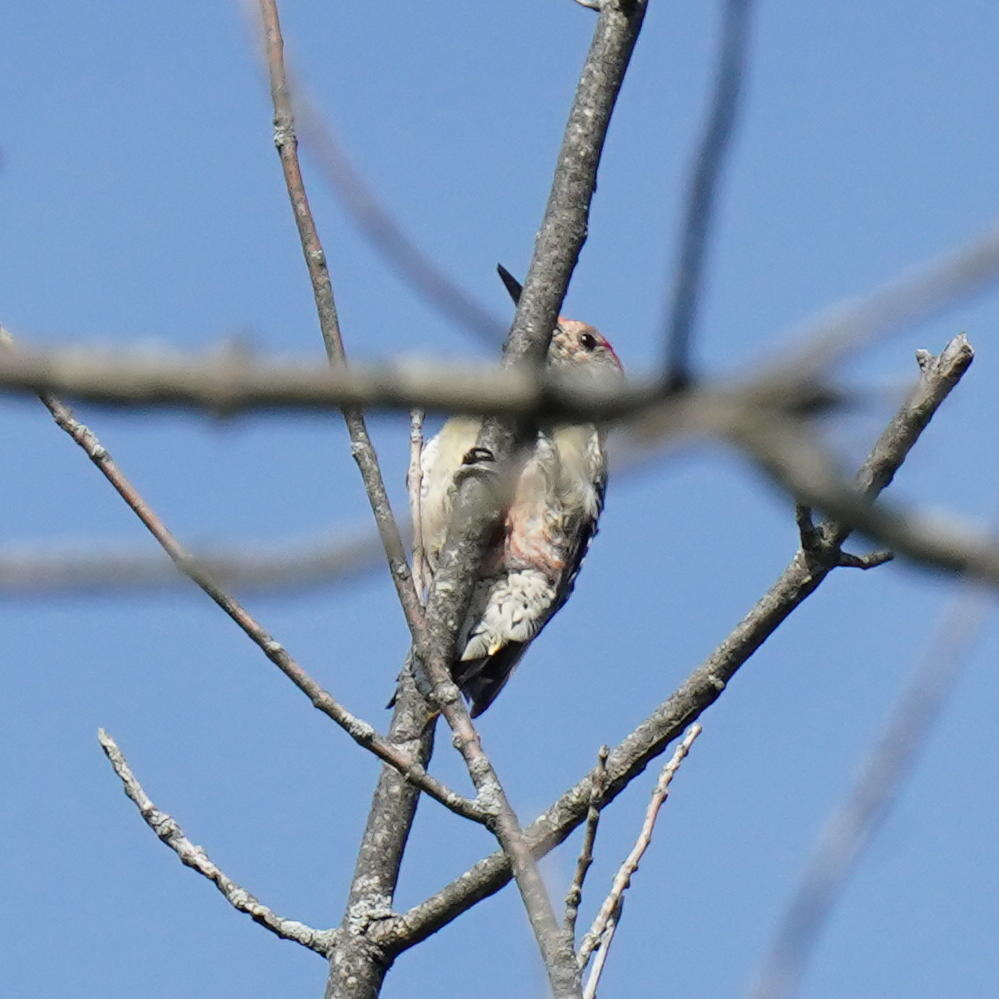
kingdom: Animalia
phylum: Chordata
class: Aves
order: Piciformes
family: Picidae
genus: Melanerpes
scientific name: Melanerpes carolinus
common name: Red-bellied woodpecker
